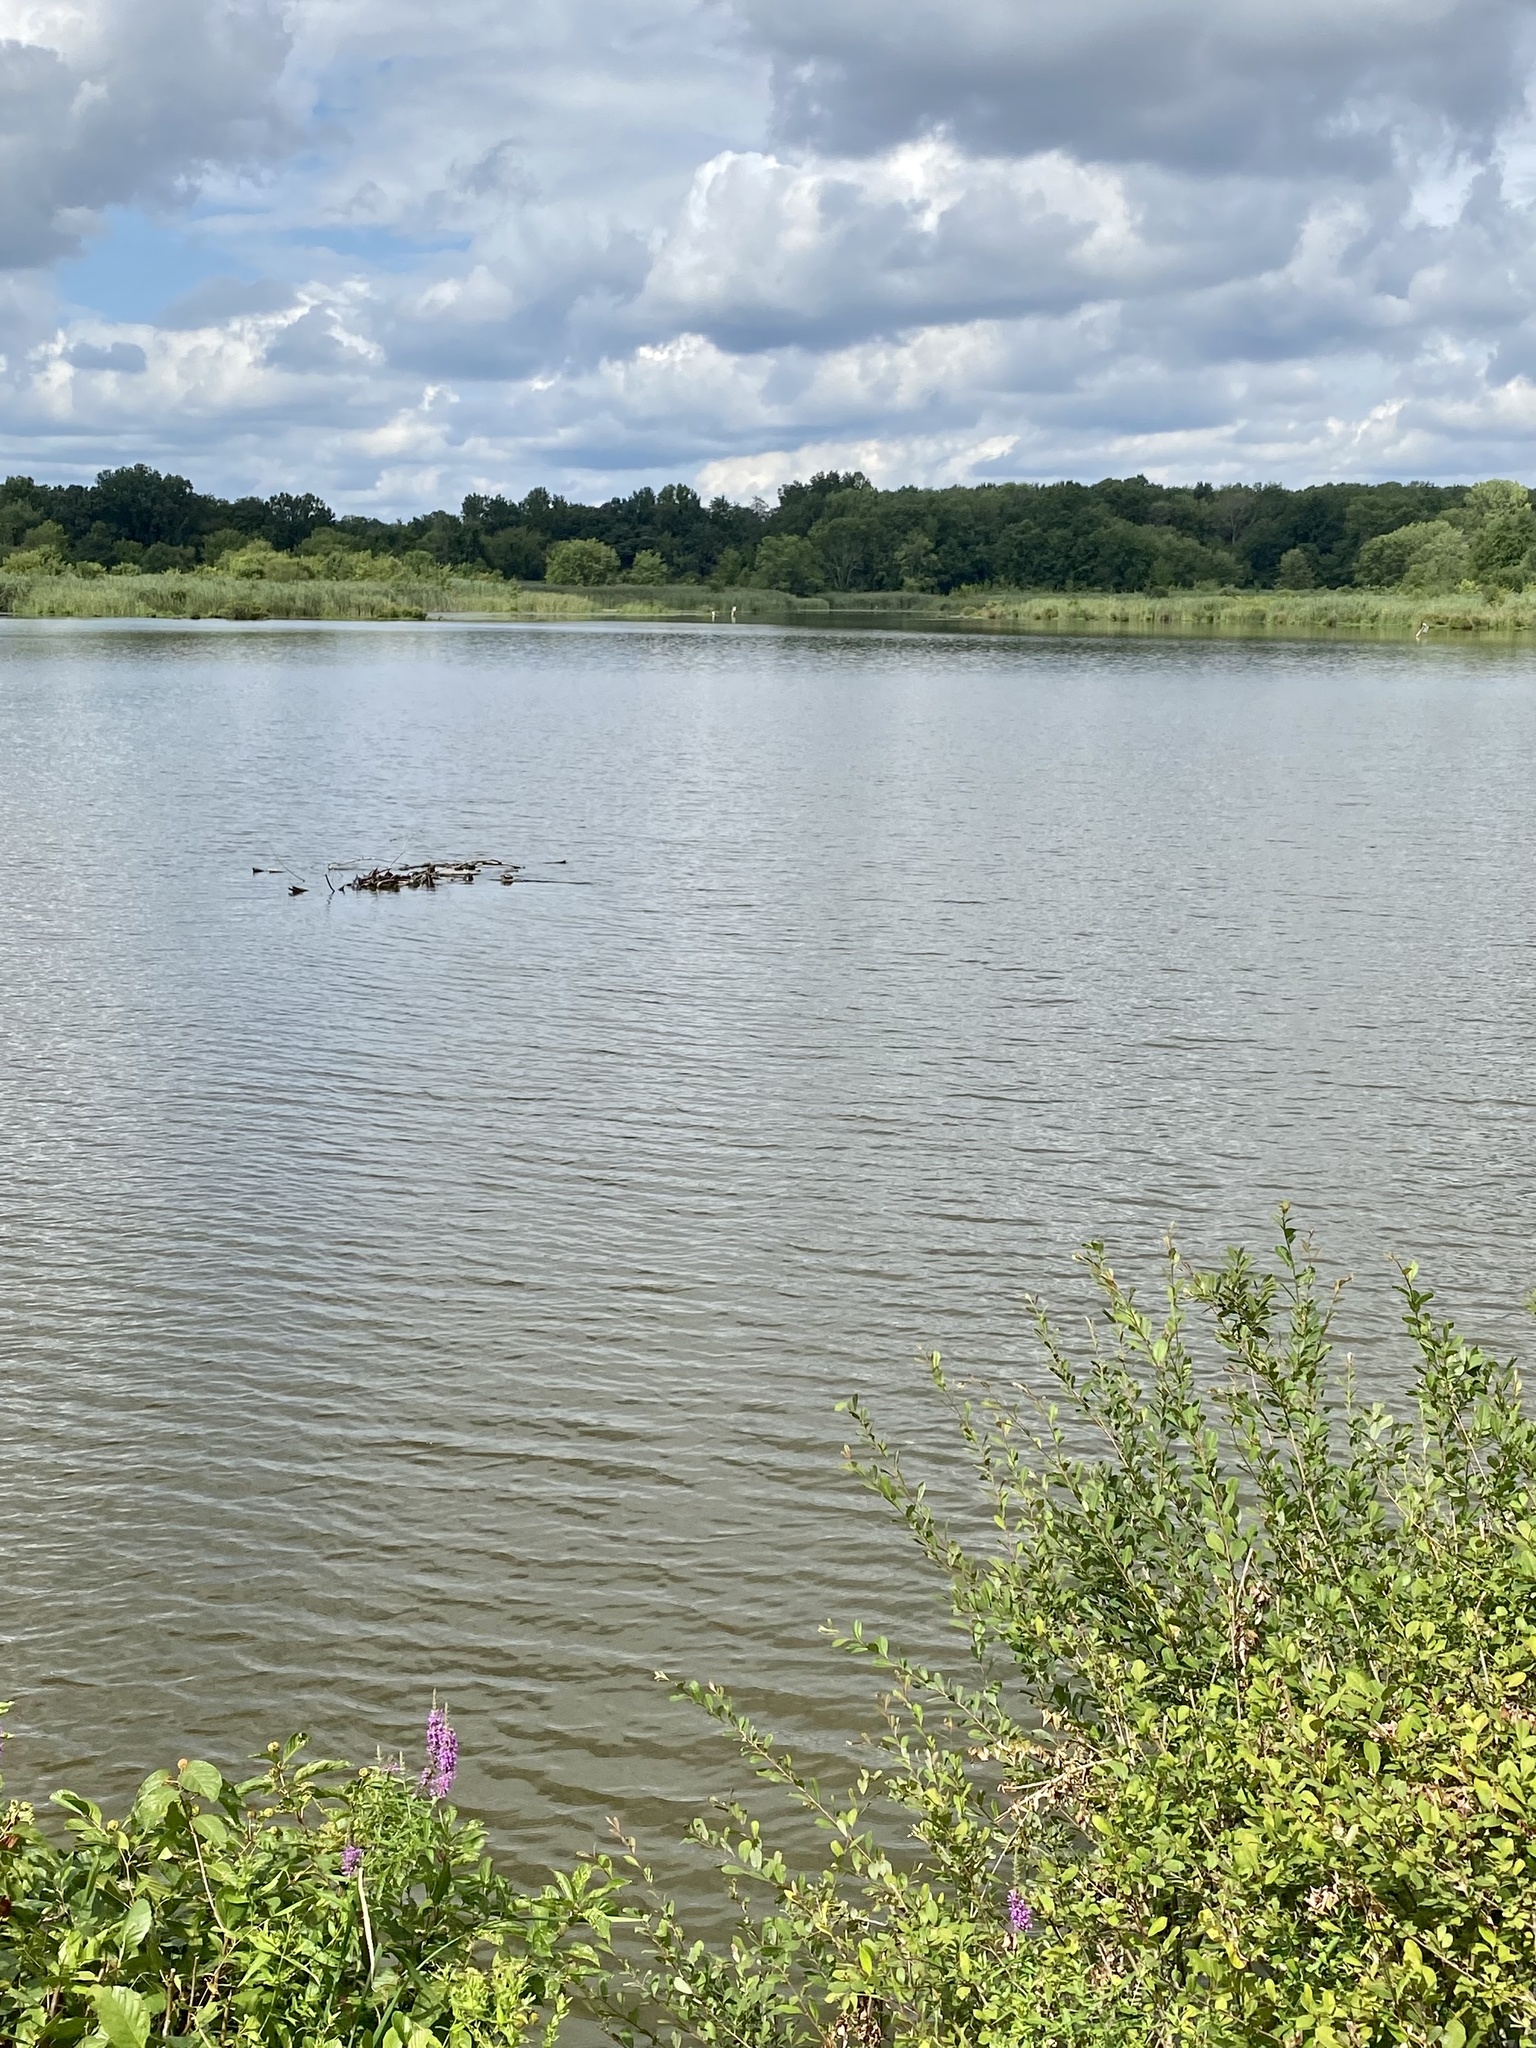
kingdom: Animalia
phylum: Chordata
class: Aves
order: Pelecaniformes
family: Ardeidae
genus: Ardea
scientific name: Ardea alba
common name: Great egret
